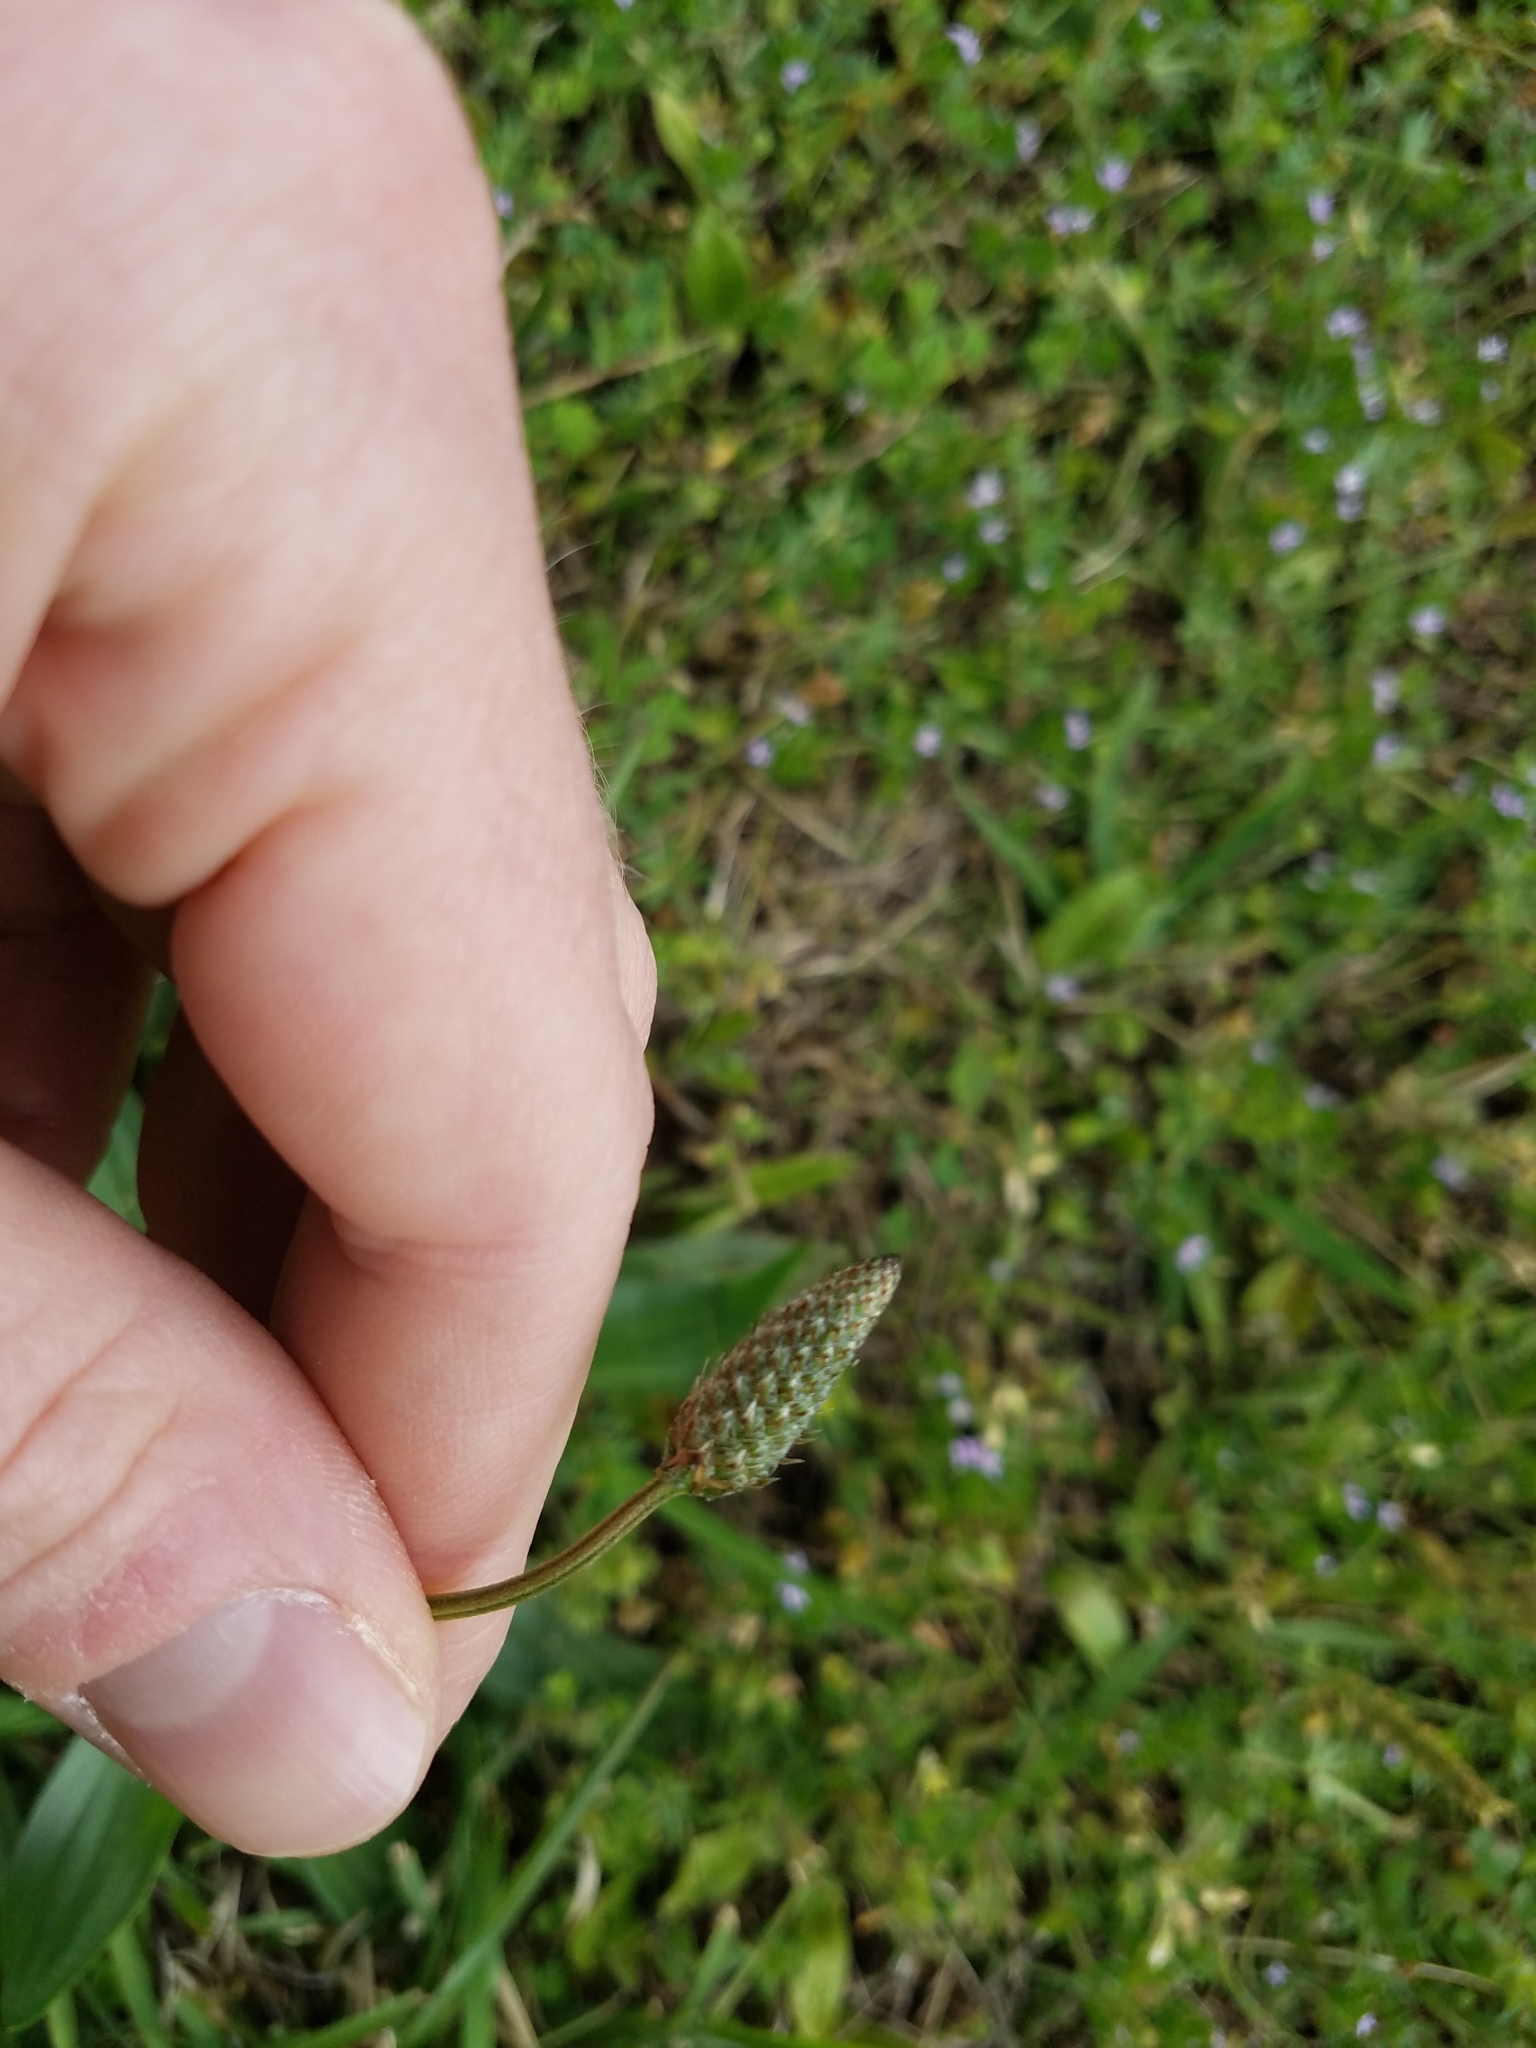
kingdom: Plantae
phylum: Tracheophyta
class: Magnoliopsida
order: Lamiales
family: Plantaginaceae
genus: Plantago
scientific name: Plantago lanceolata
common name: Ribwort plantain
